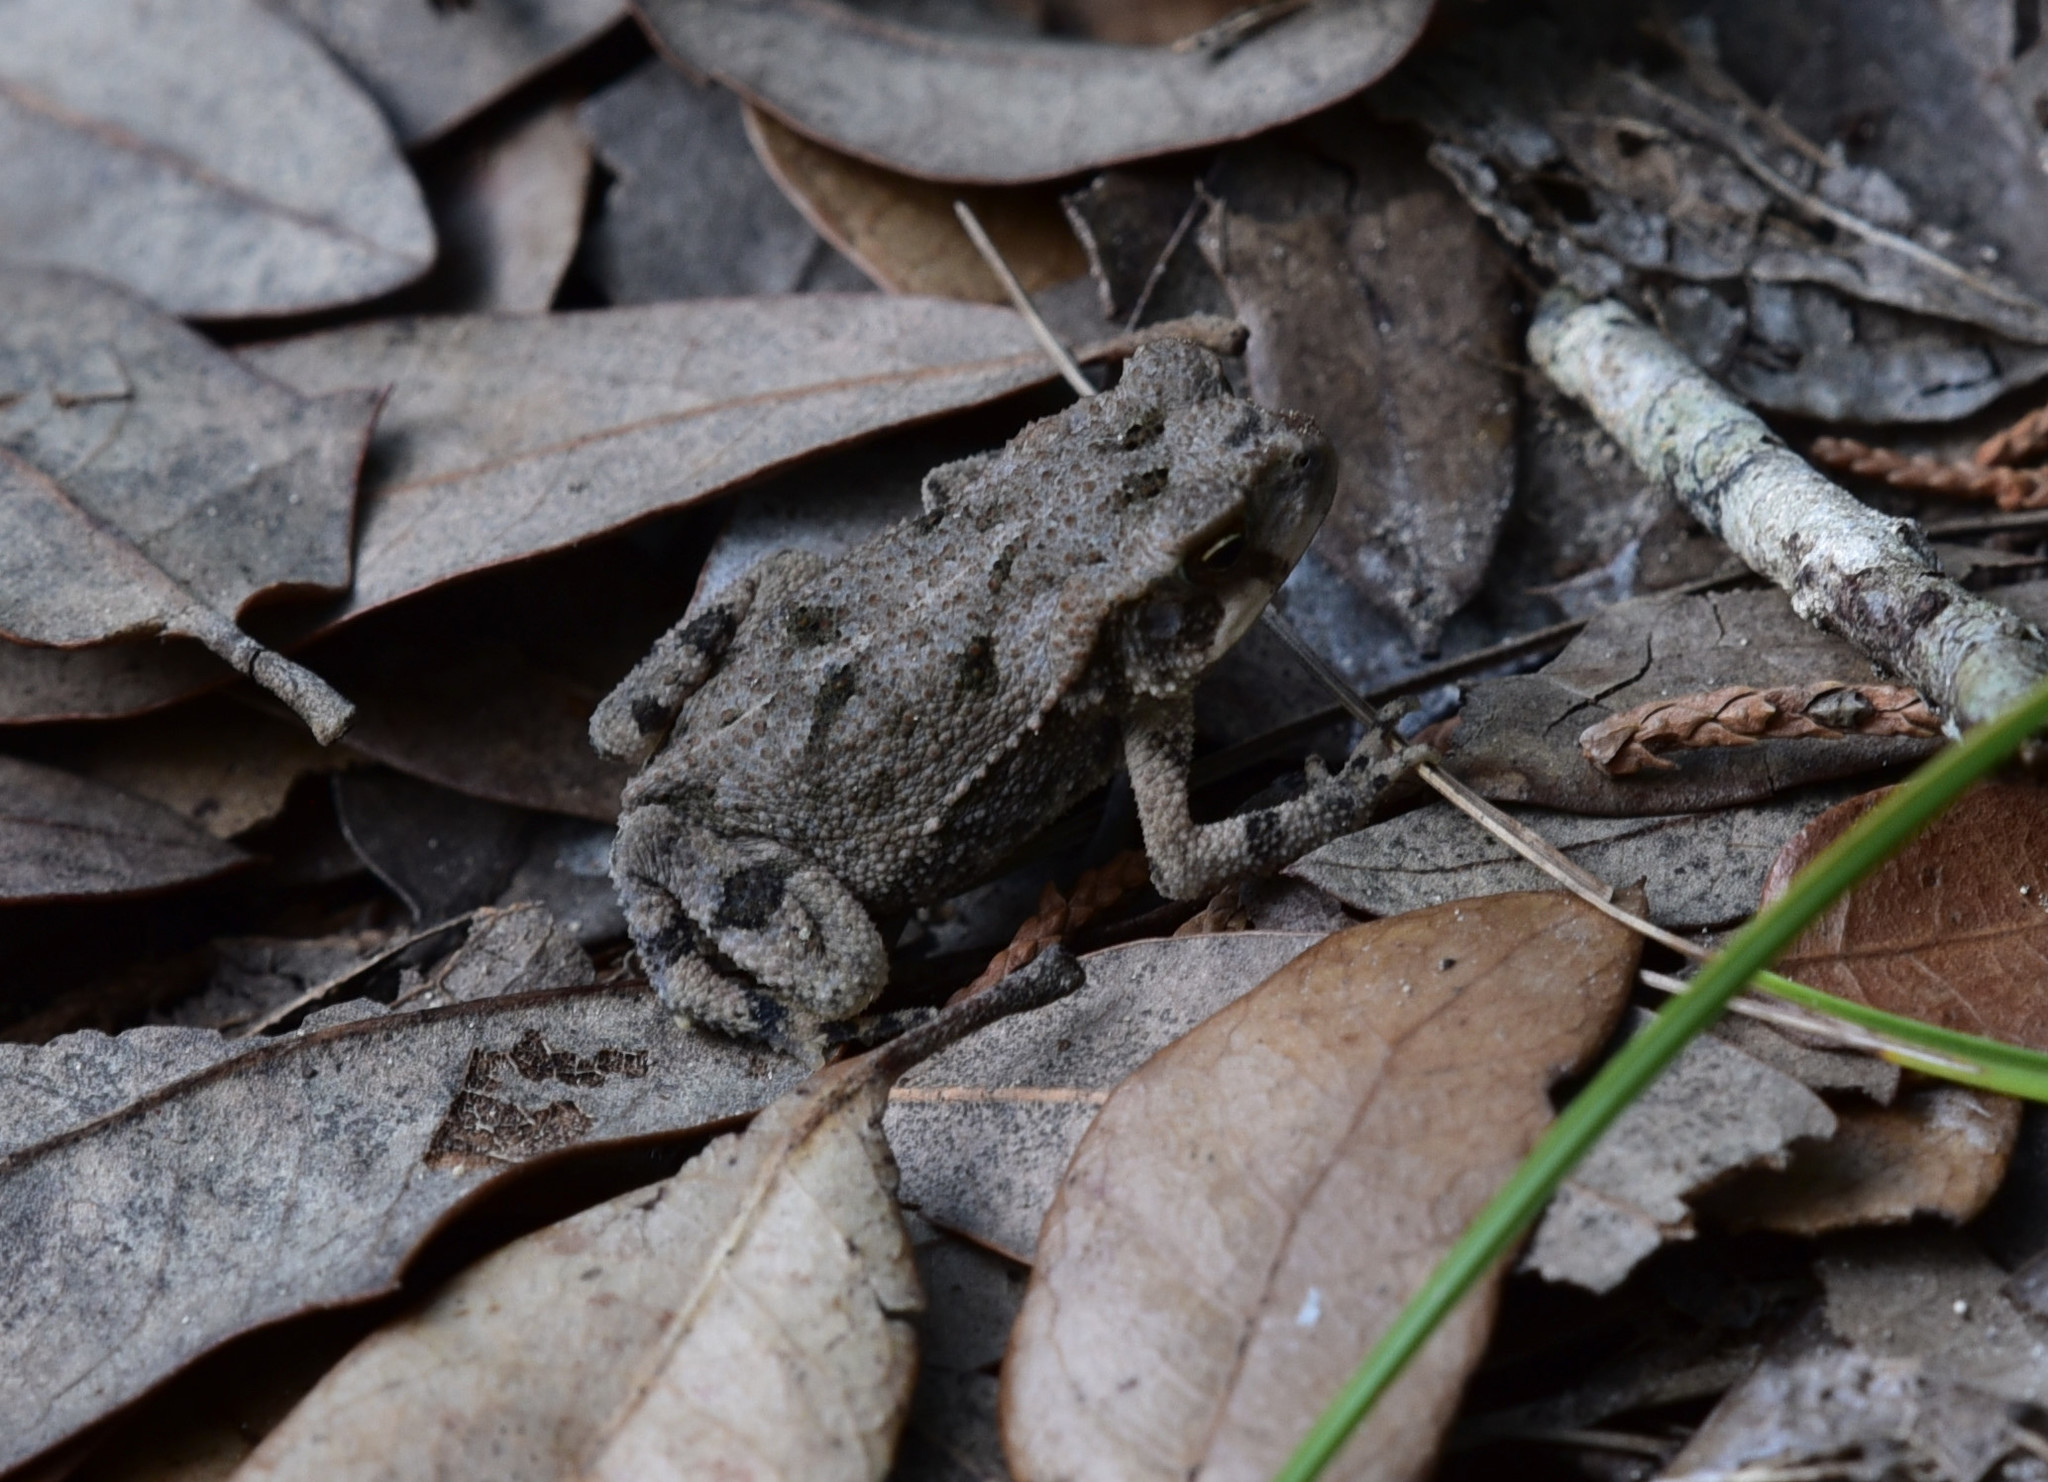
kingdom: Animalia
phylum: Chordata
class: Amphibia
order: Anura
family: Bufonidae
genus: Incilius
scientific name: Incilius nebulifer
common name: Gulf coast toad
